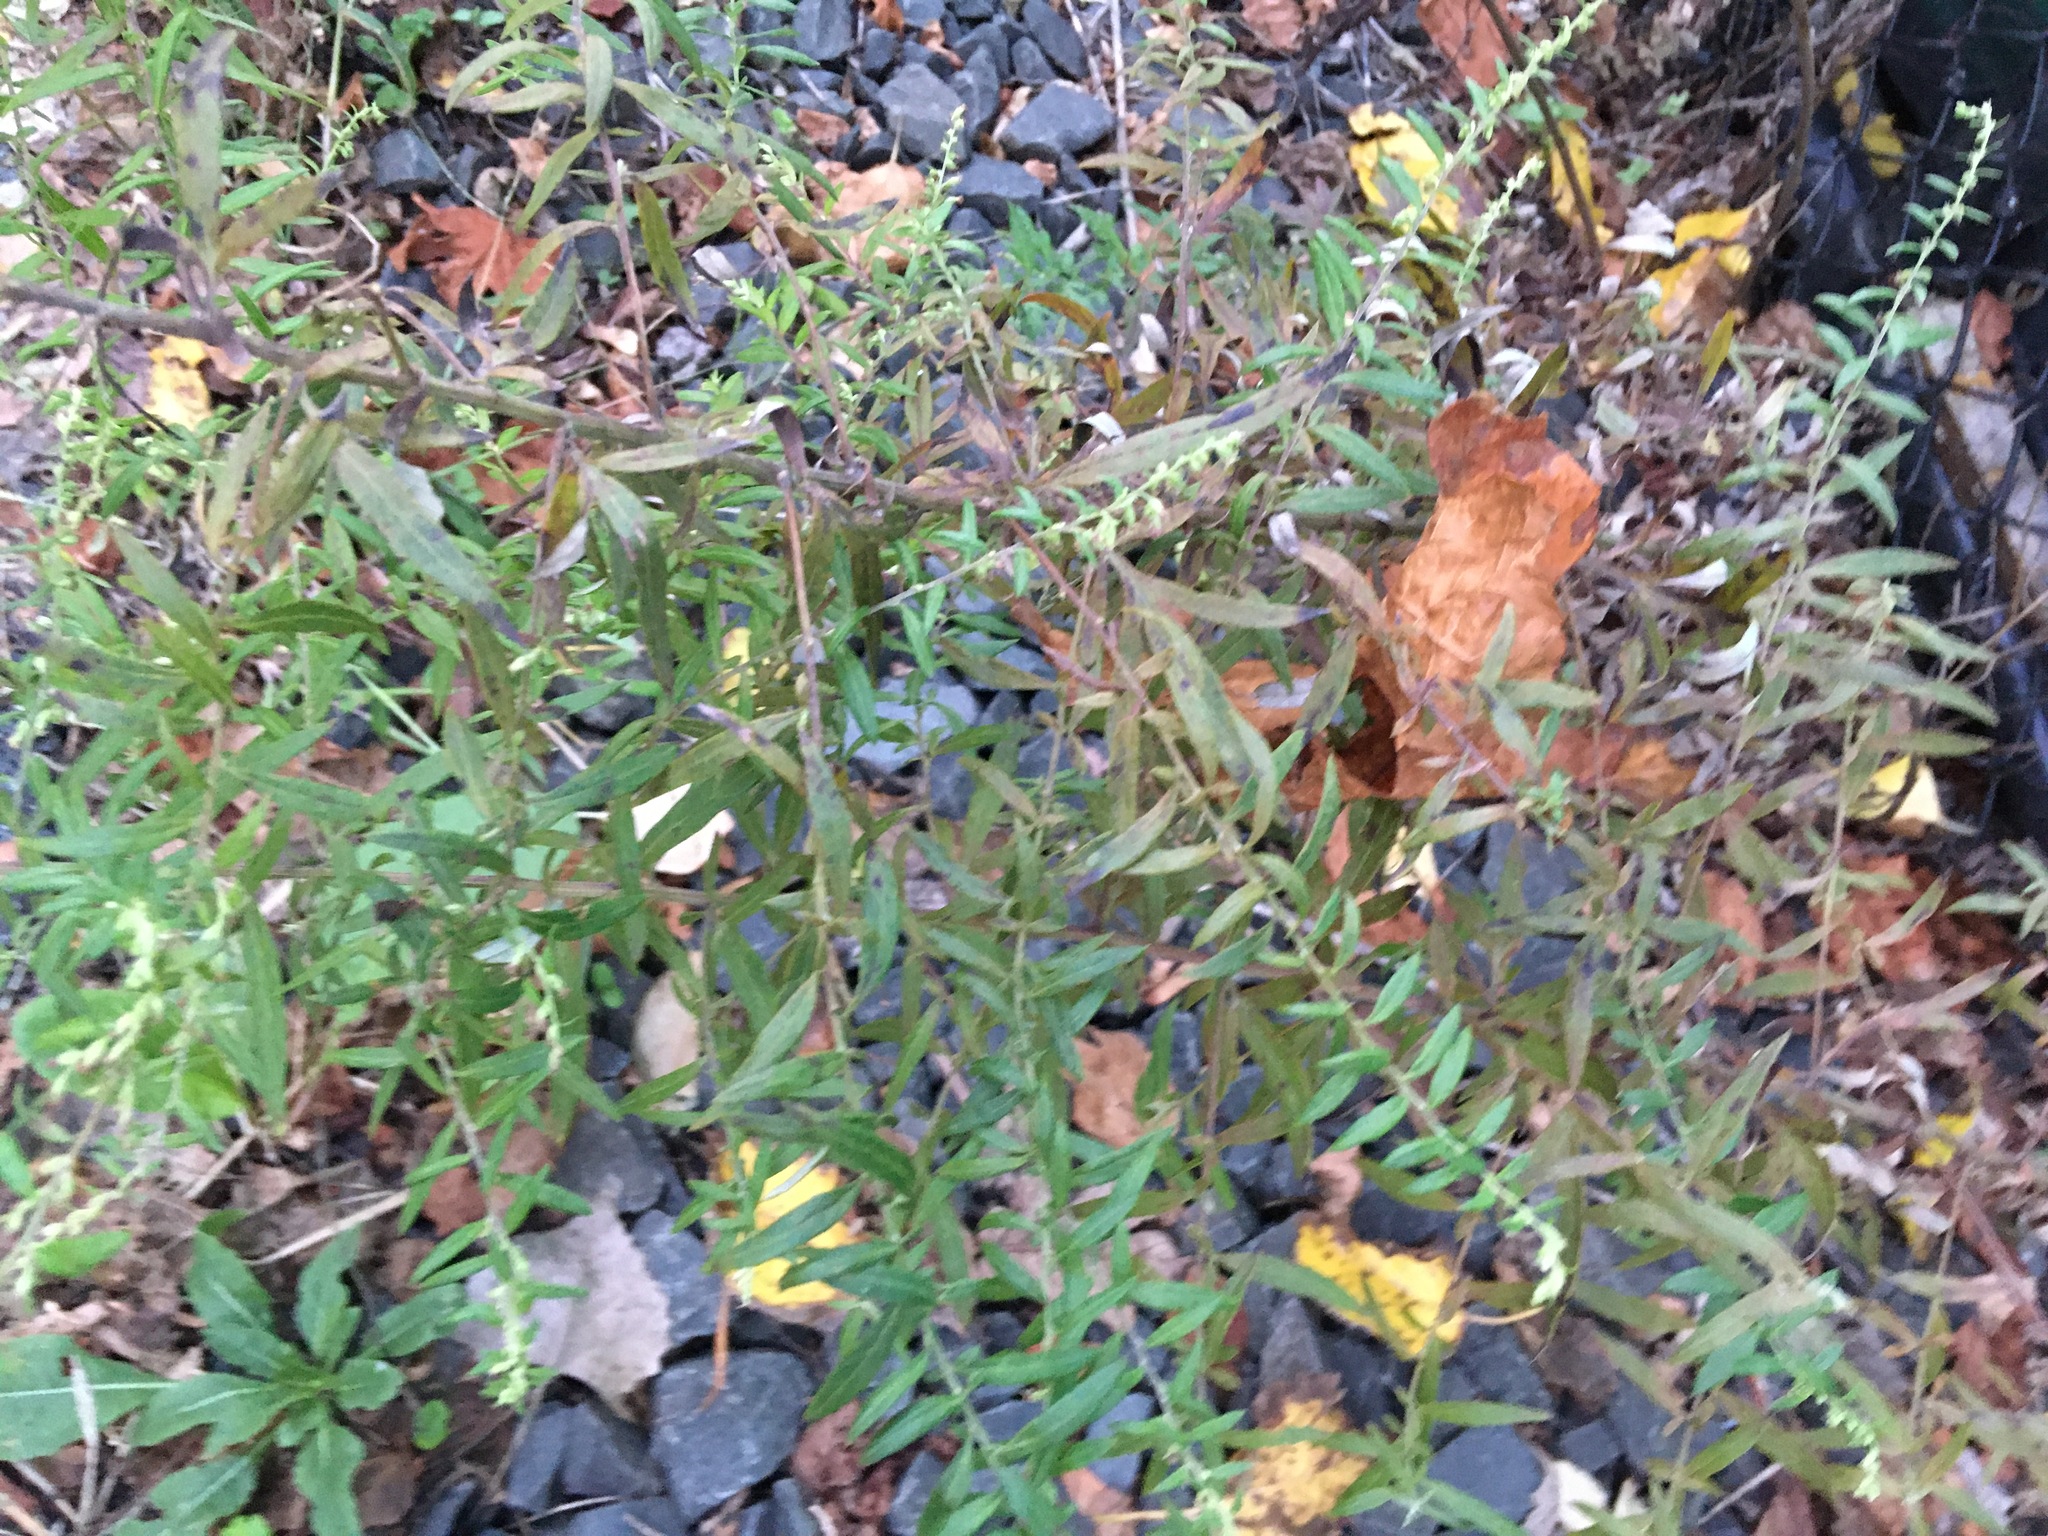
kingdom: Plantae
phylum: Tracheophyta
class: Magnoliopsida
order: Asterales
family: Asteraceae
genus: Artemisia
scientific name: Artemisia vulgaris
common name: Mugwort
